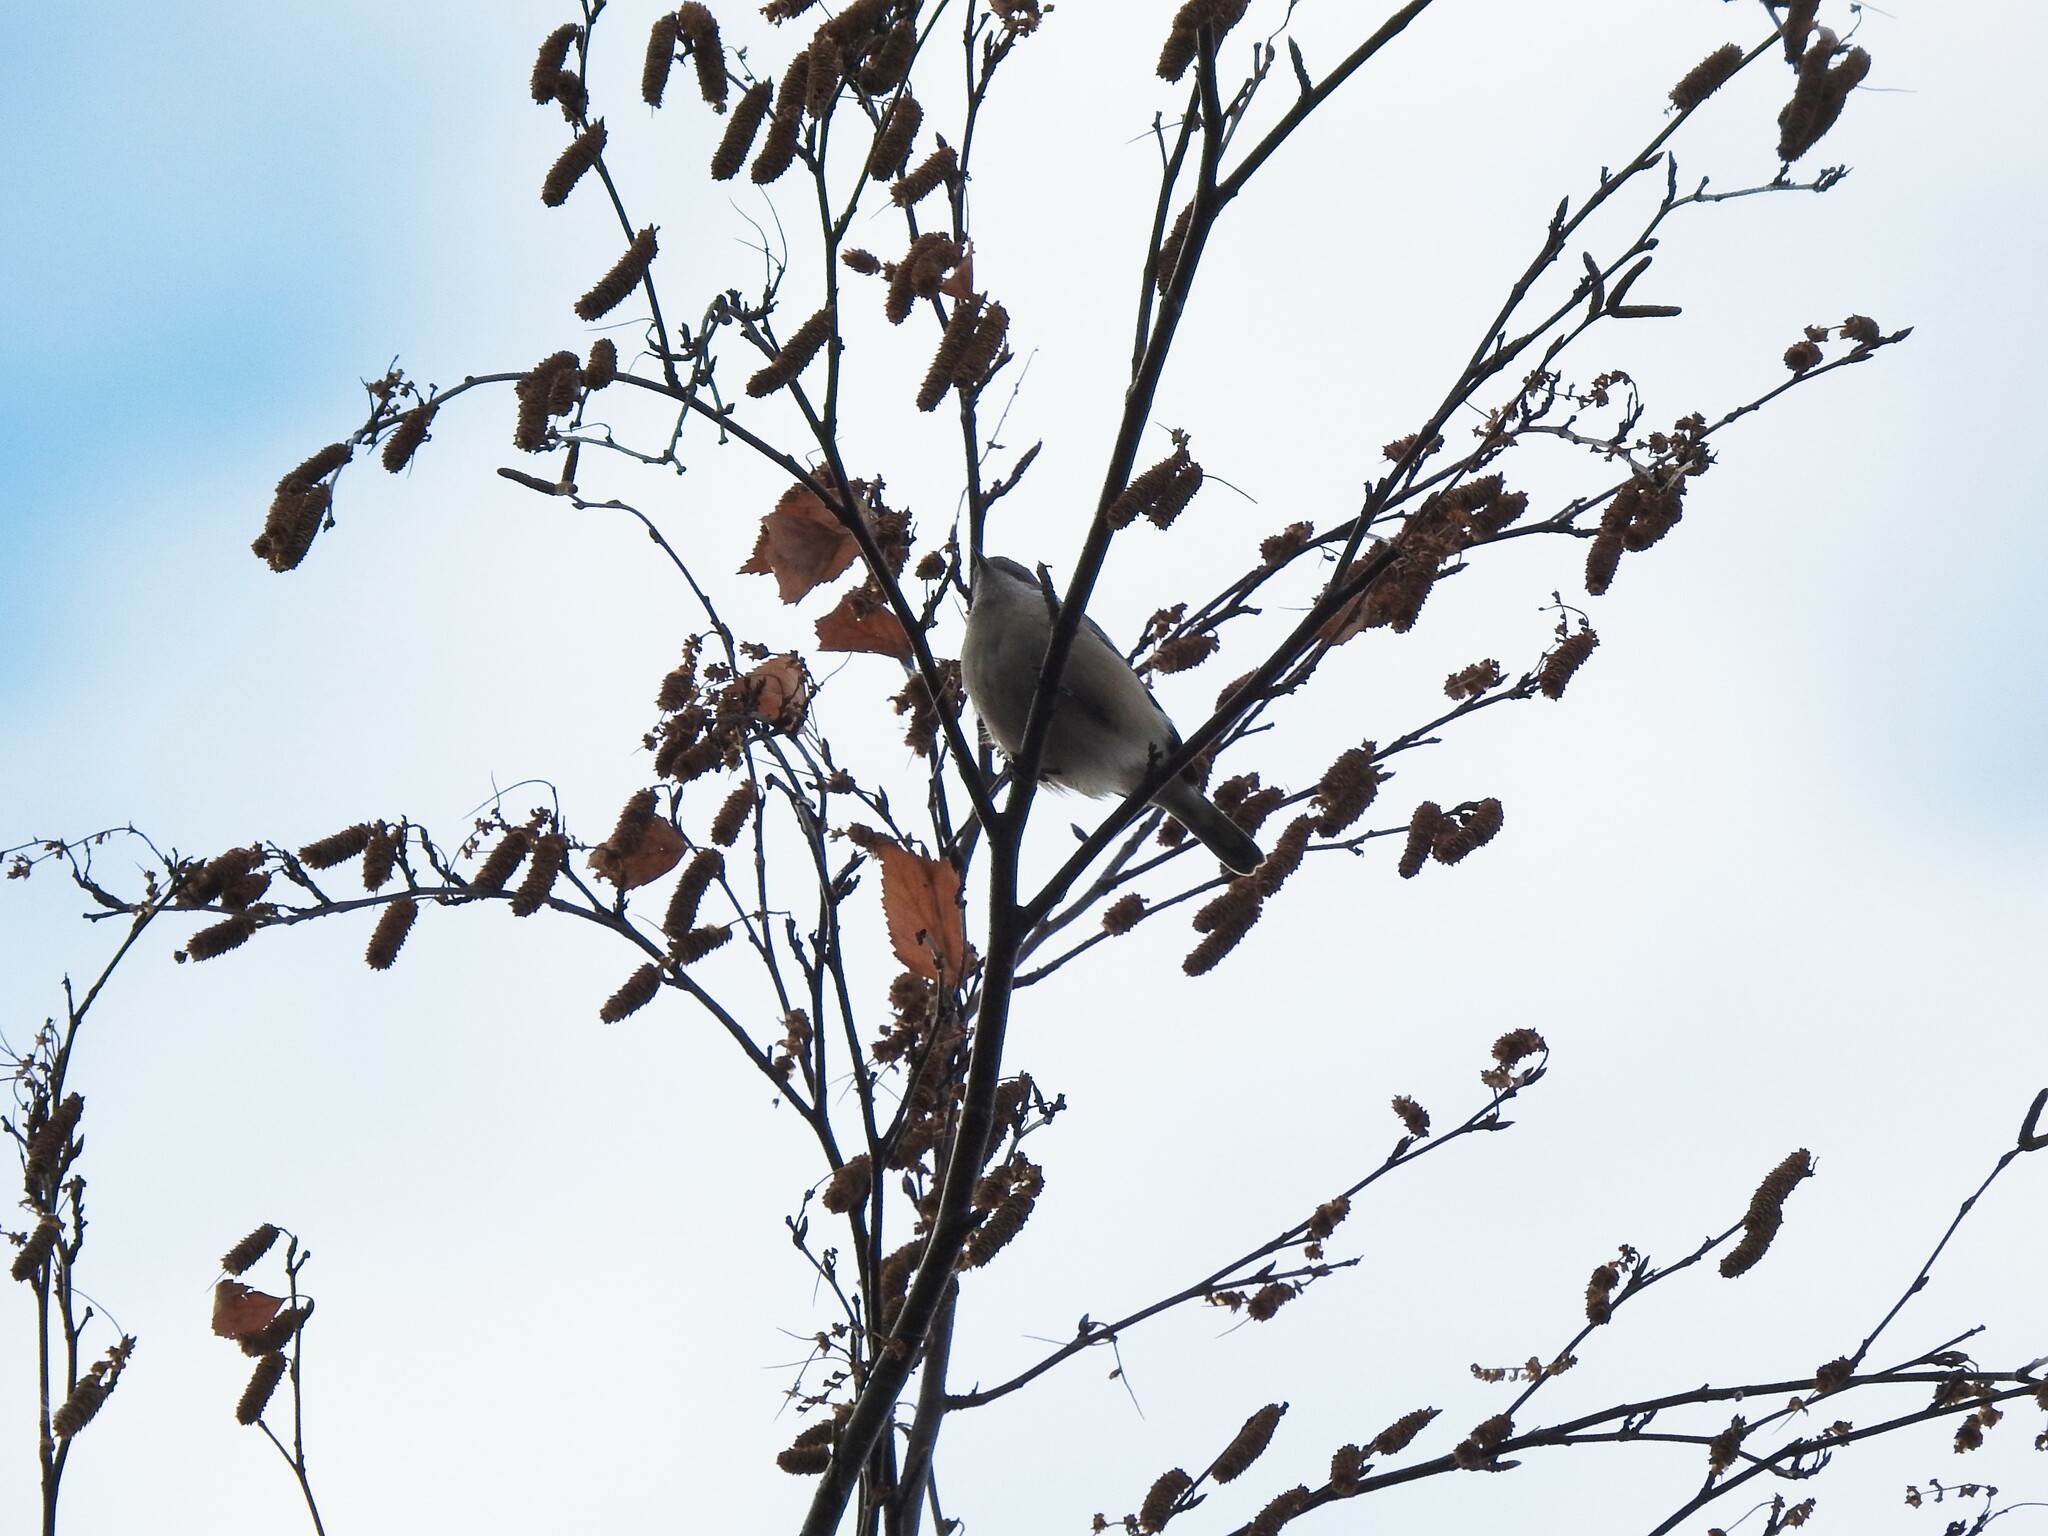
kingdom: Animalia
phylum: Chordata
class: Aves
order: Passeriformes
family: Sylviidae
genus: Sylvia
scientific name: Sylvia curruca
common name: Lesser whitethroat
